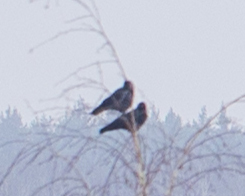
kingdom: Animalia
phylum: Chordata
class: Aves
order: Passeriformes
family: Corvidae
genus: Coloeus
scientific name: Coloeus monedula
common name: Western jackdaw
